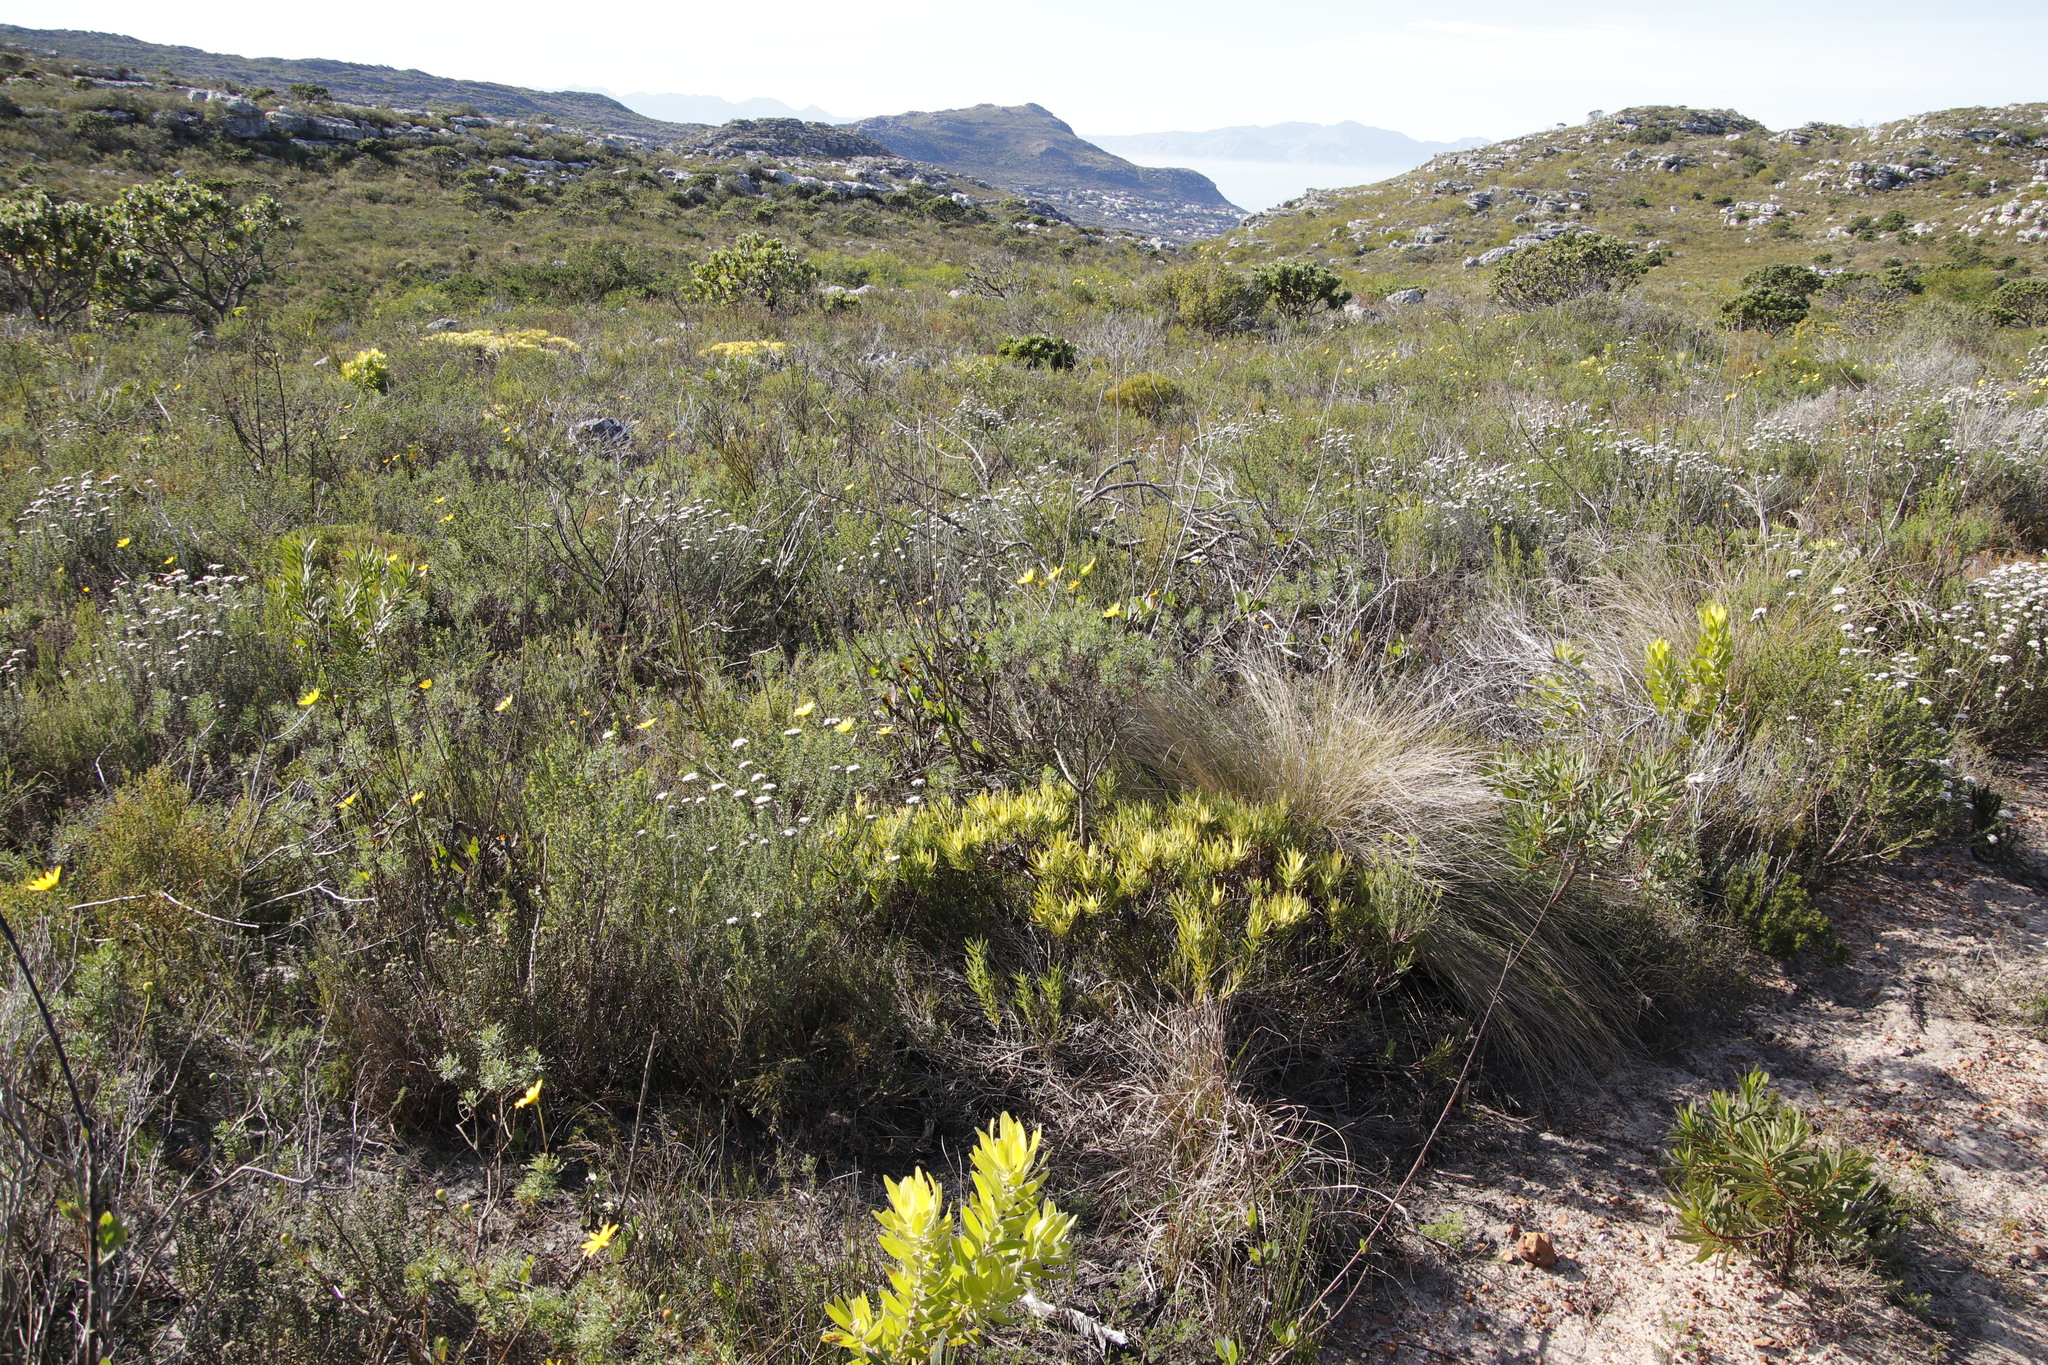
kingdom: Plantae
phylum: Tracheophyta
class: Magnoliopsida
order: Proteales
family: Proteaceae
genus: Leucadendron
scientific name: Leucadendron salignum
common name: Common sunshine conebush
